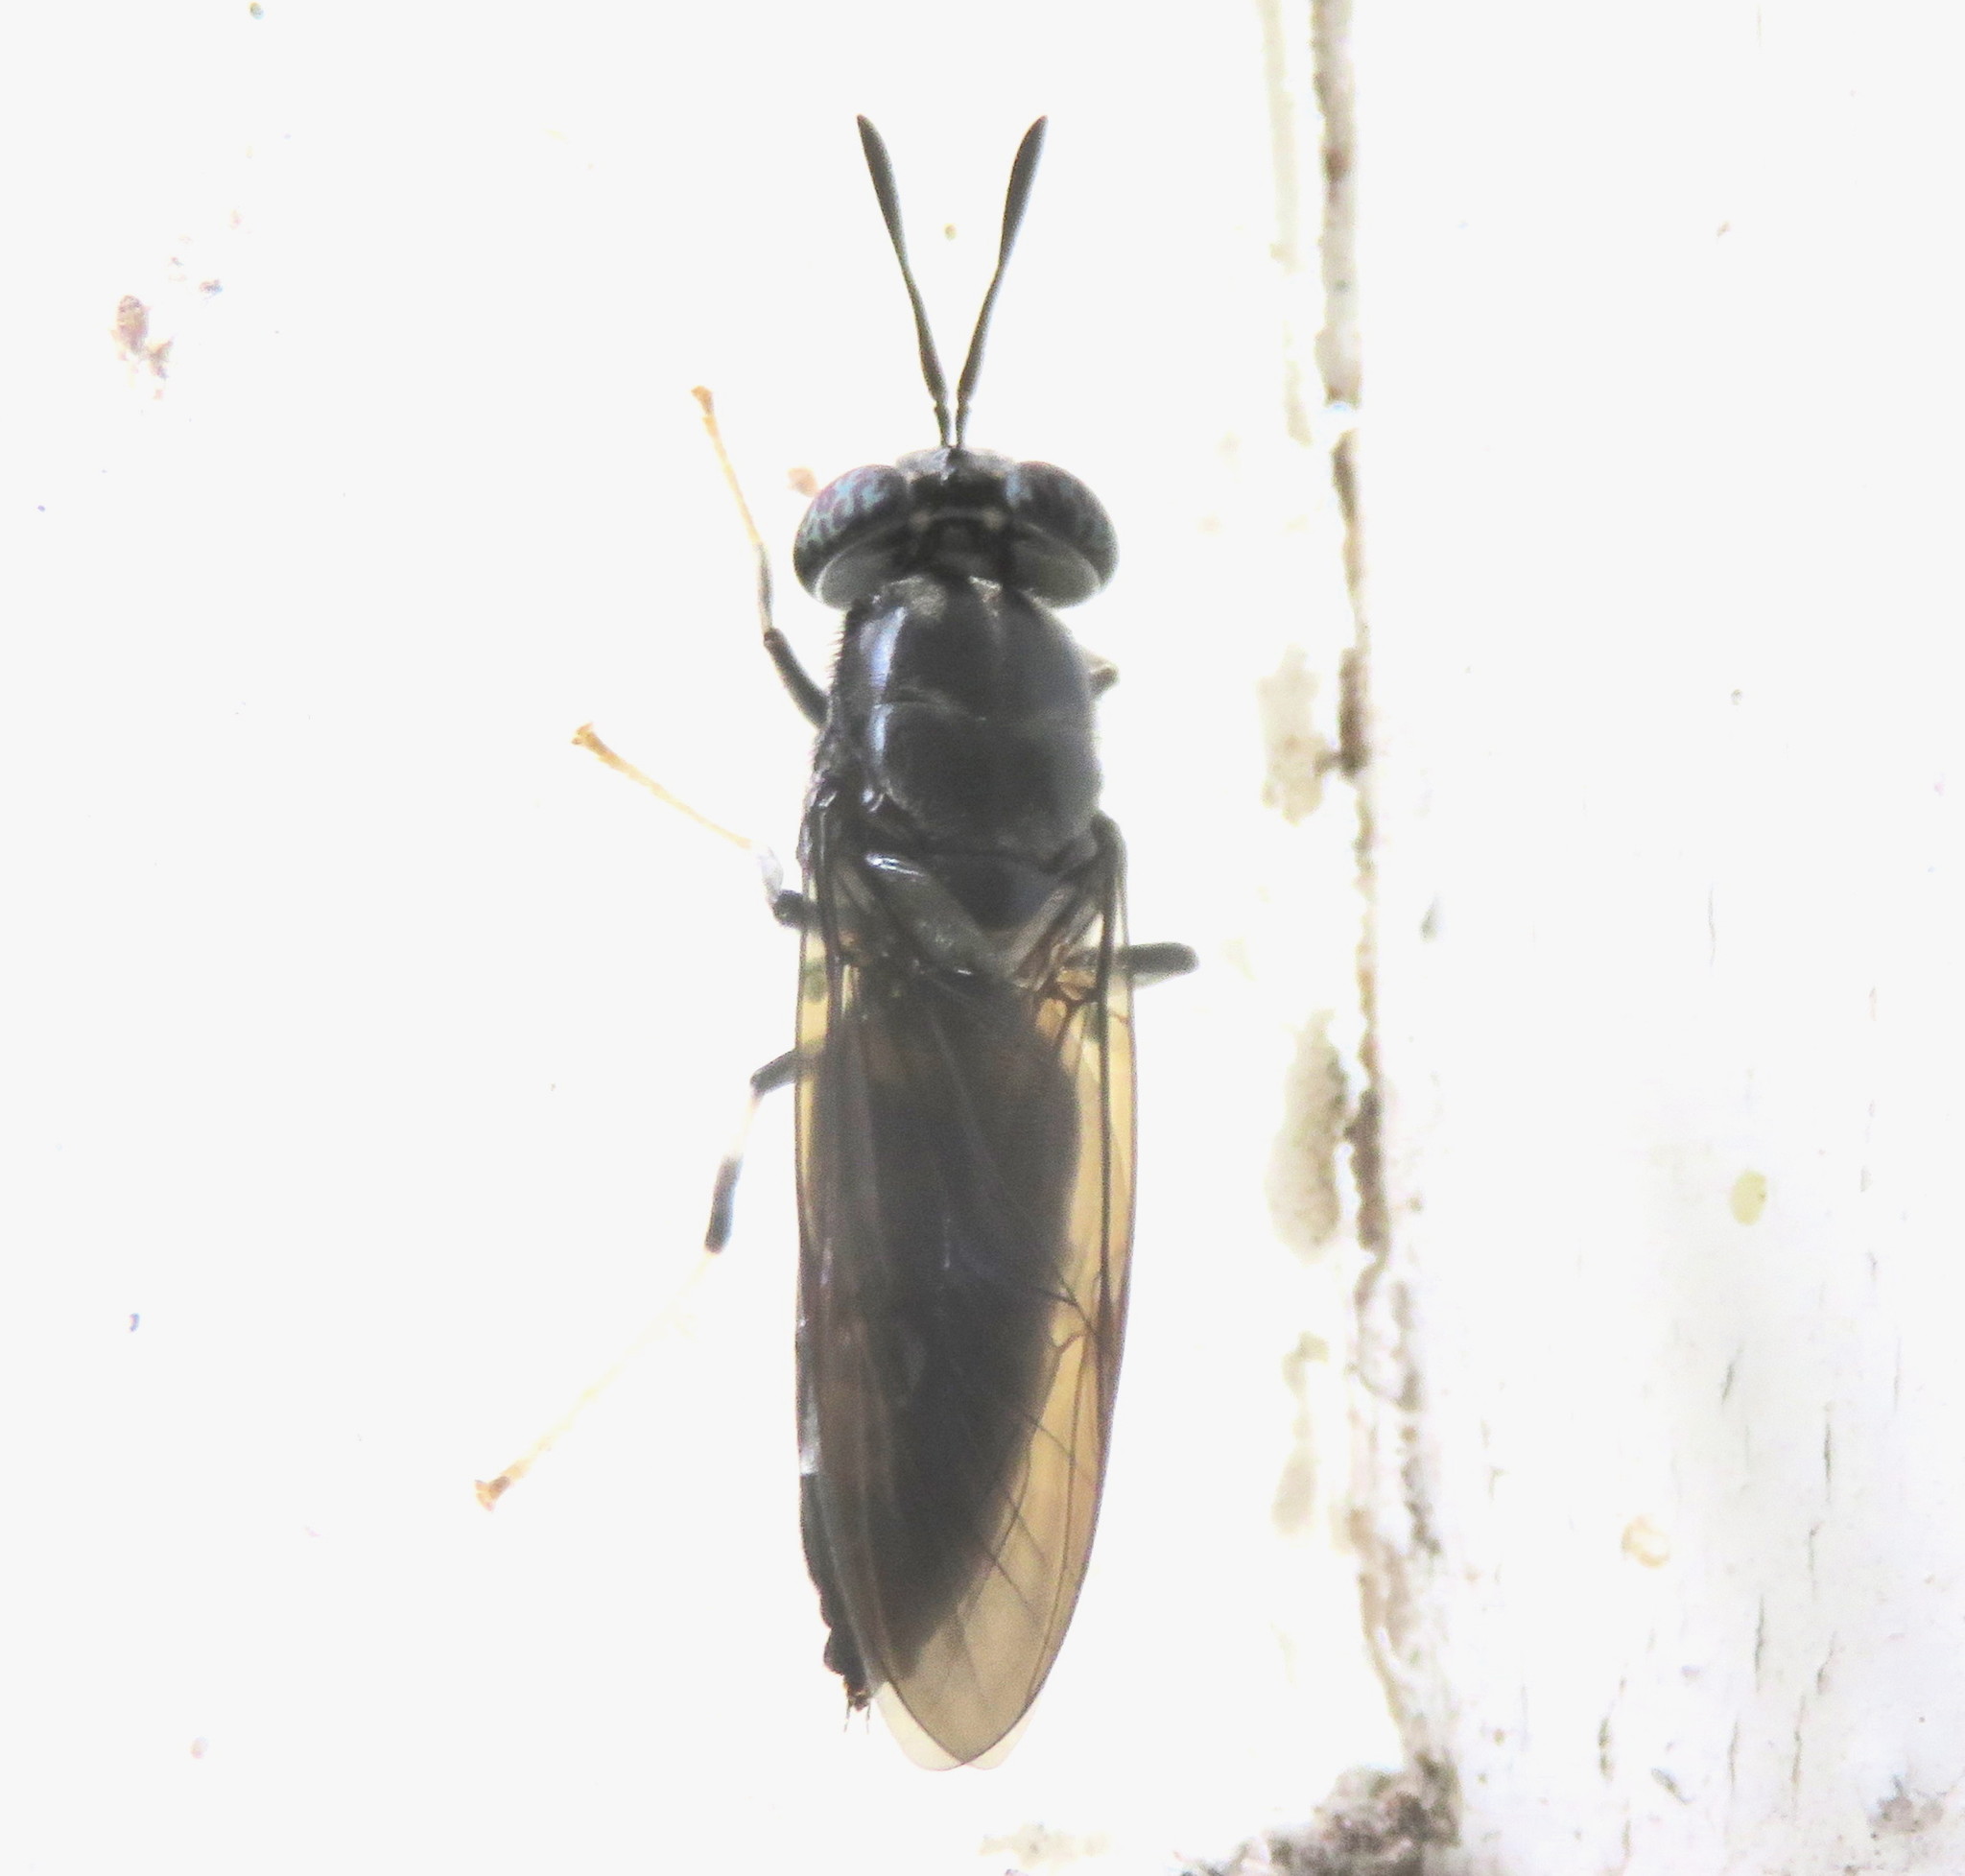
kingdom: Animalia
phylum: Arthropoda
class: Insecta
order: Diptera
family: Stratiomyidae
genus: Hermetia
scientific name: Hermetia illucens
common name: Black soldier fly
